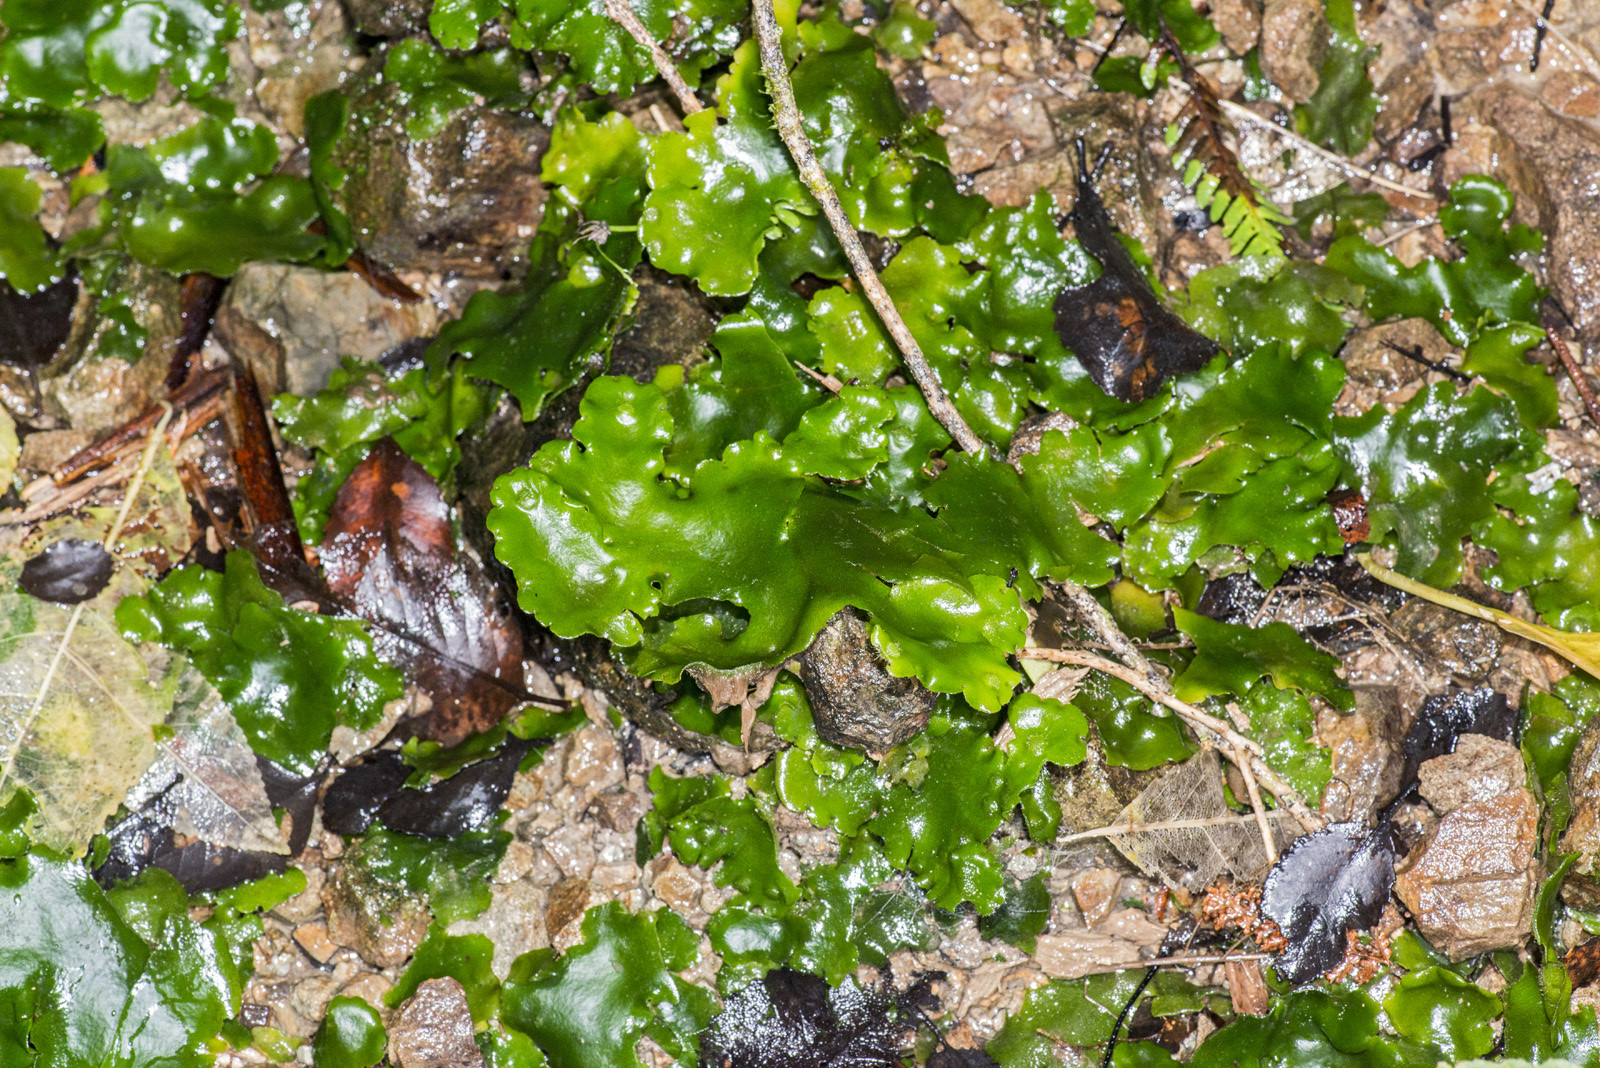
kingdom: Plantae
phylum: Marchantiophyta
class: Marchantiopsida
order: Marchantiales
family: Monocleaceae
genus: Monoclea
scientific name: Monoclea forsteri
